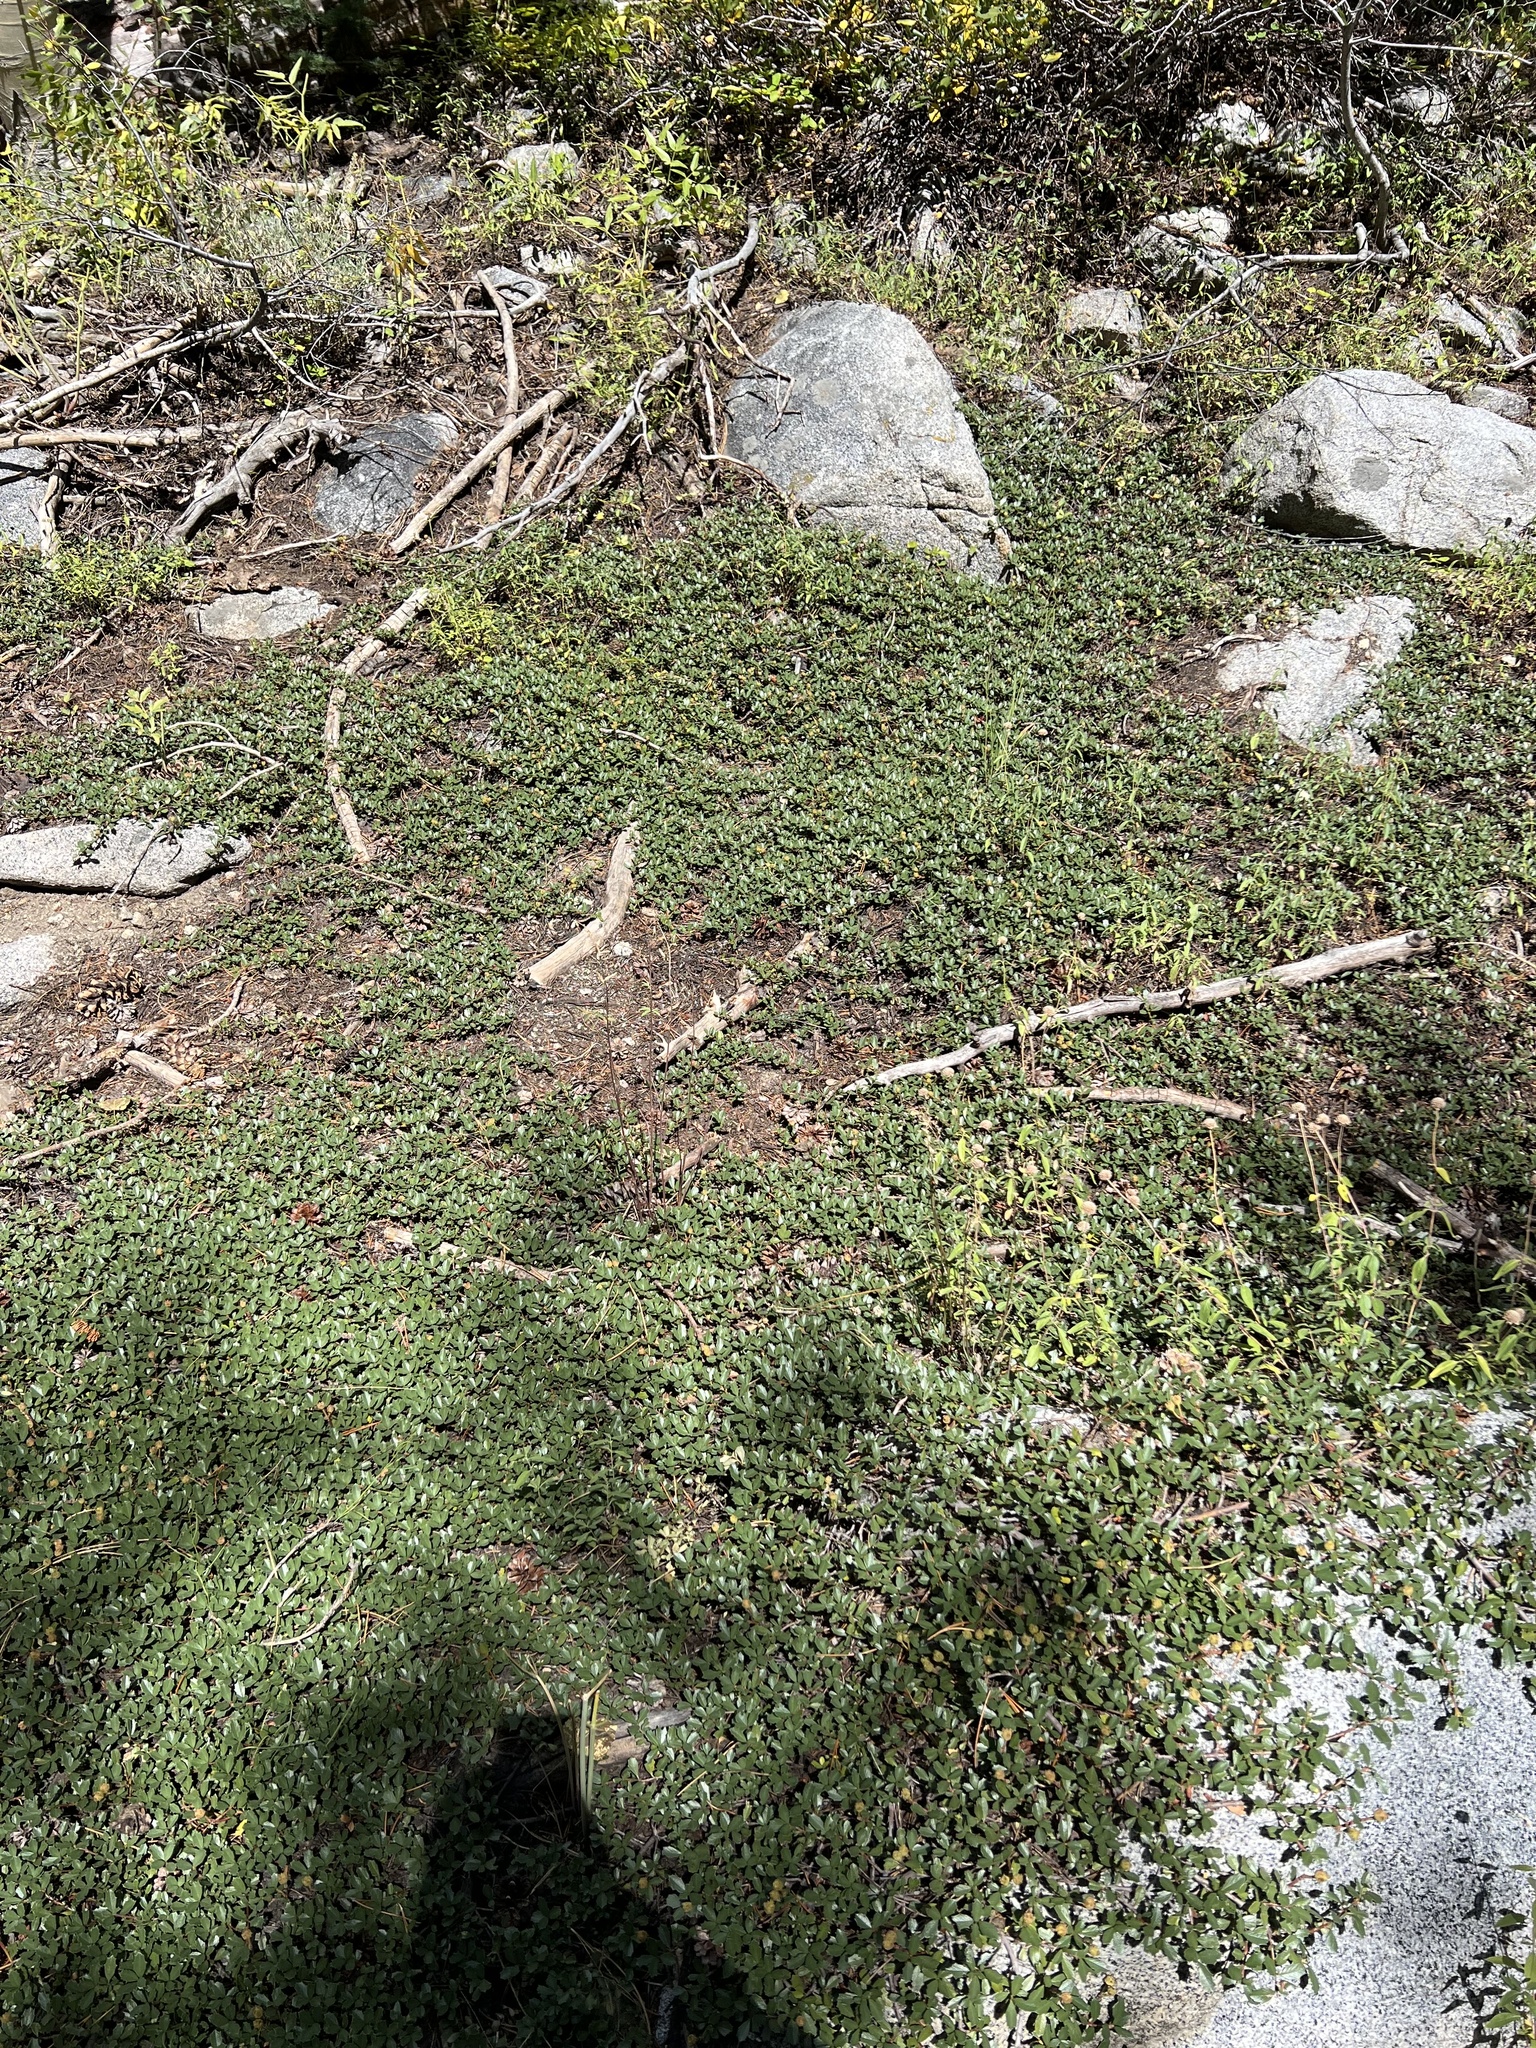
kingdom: Plantae
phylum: Tracheophyta
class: Magnoliopsida
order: Rosales
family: Rhamnaceae
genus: Ceanothus
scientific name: Ceanothus prostratus
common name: Mahala-mat
